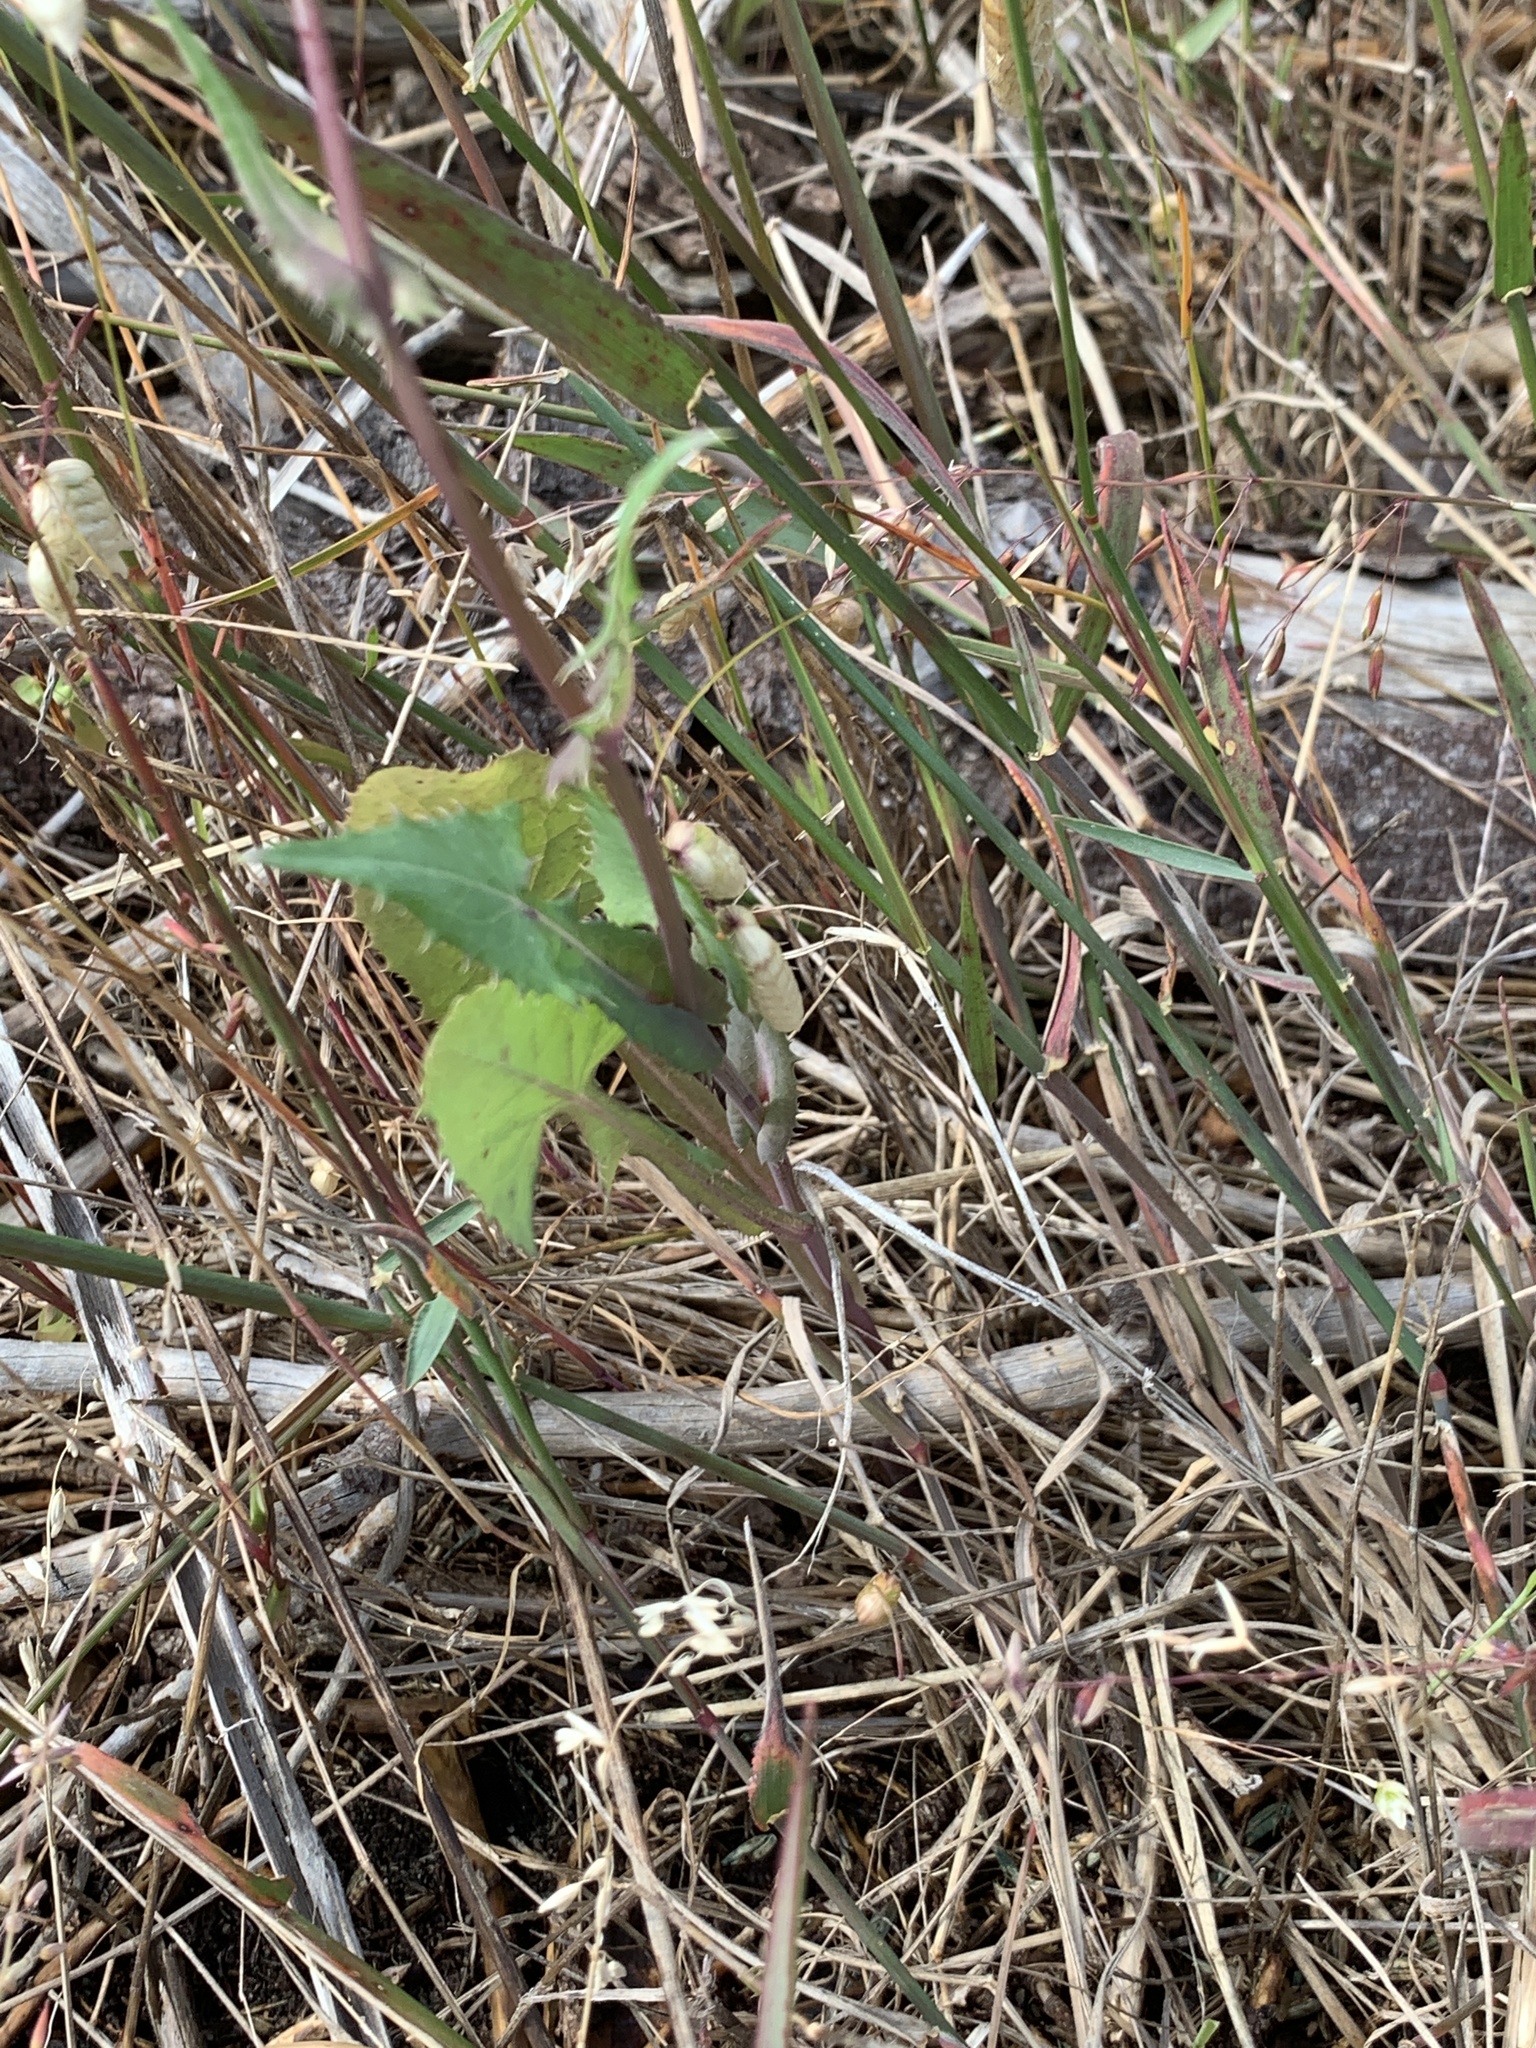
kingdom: Plantae
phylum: Tracheophyta
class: Magnoliopsida
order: Asterales
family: Asteraceae
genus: Sonchus
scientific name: Sonchus oleraceus
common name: Common sowthistle
